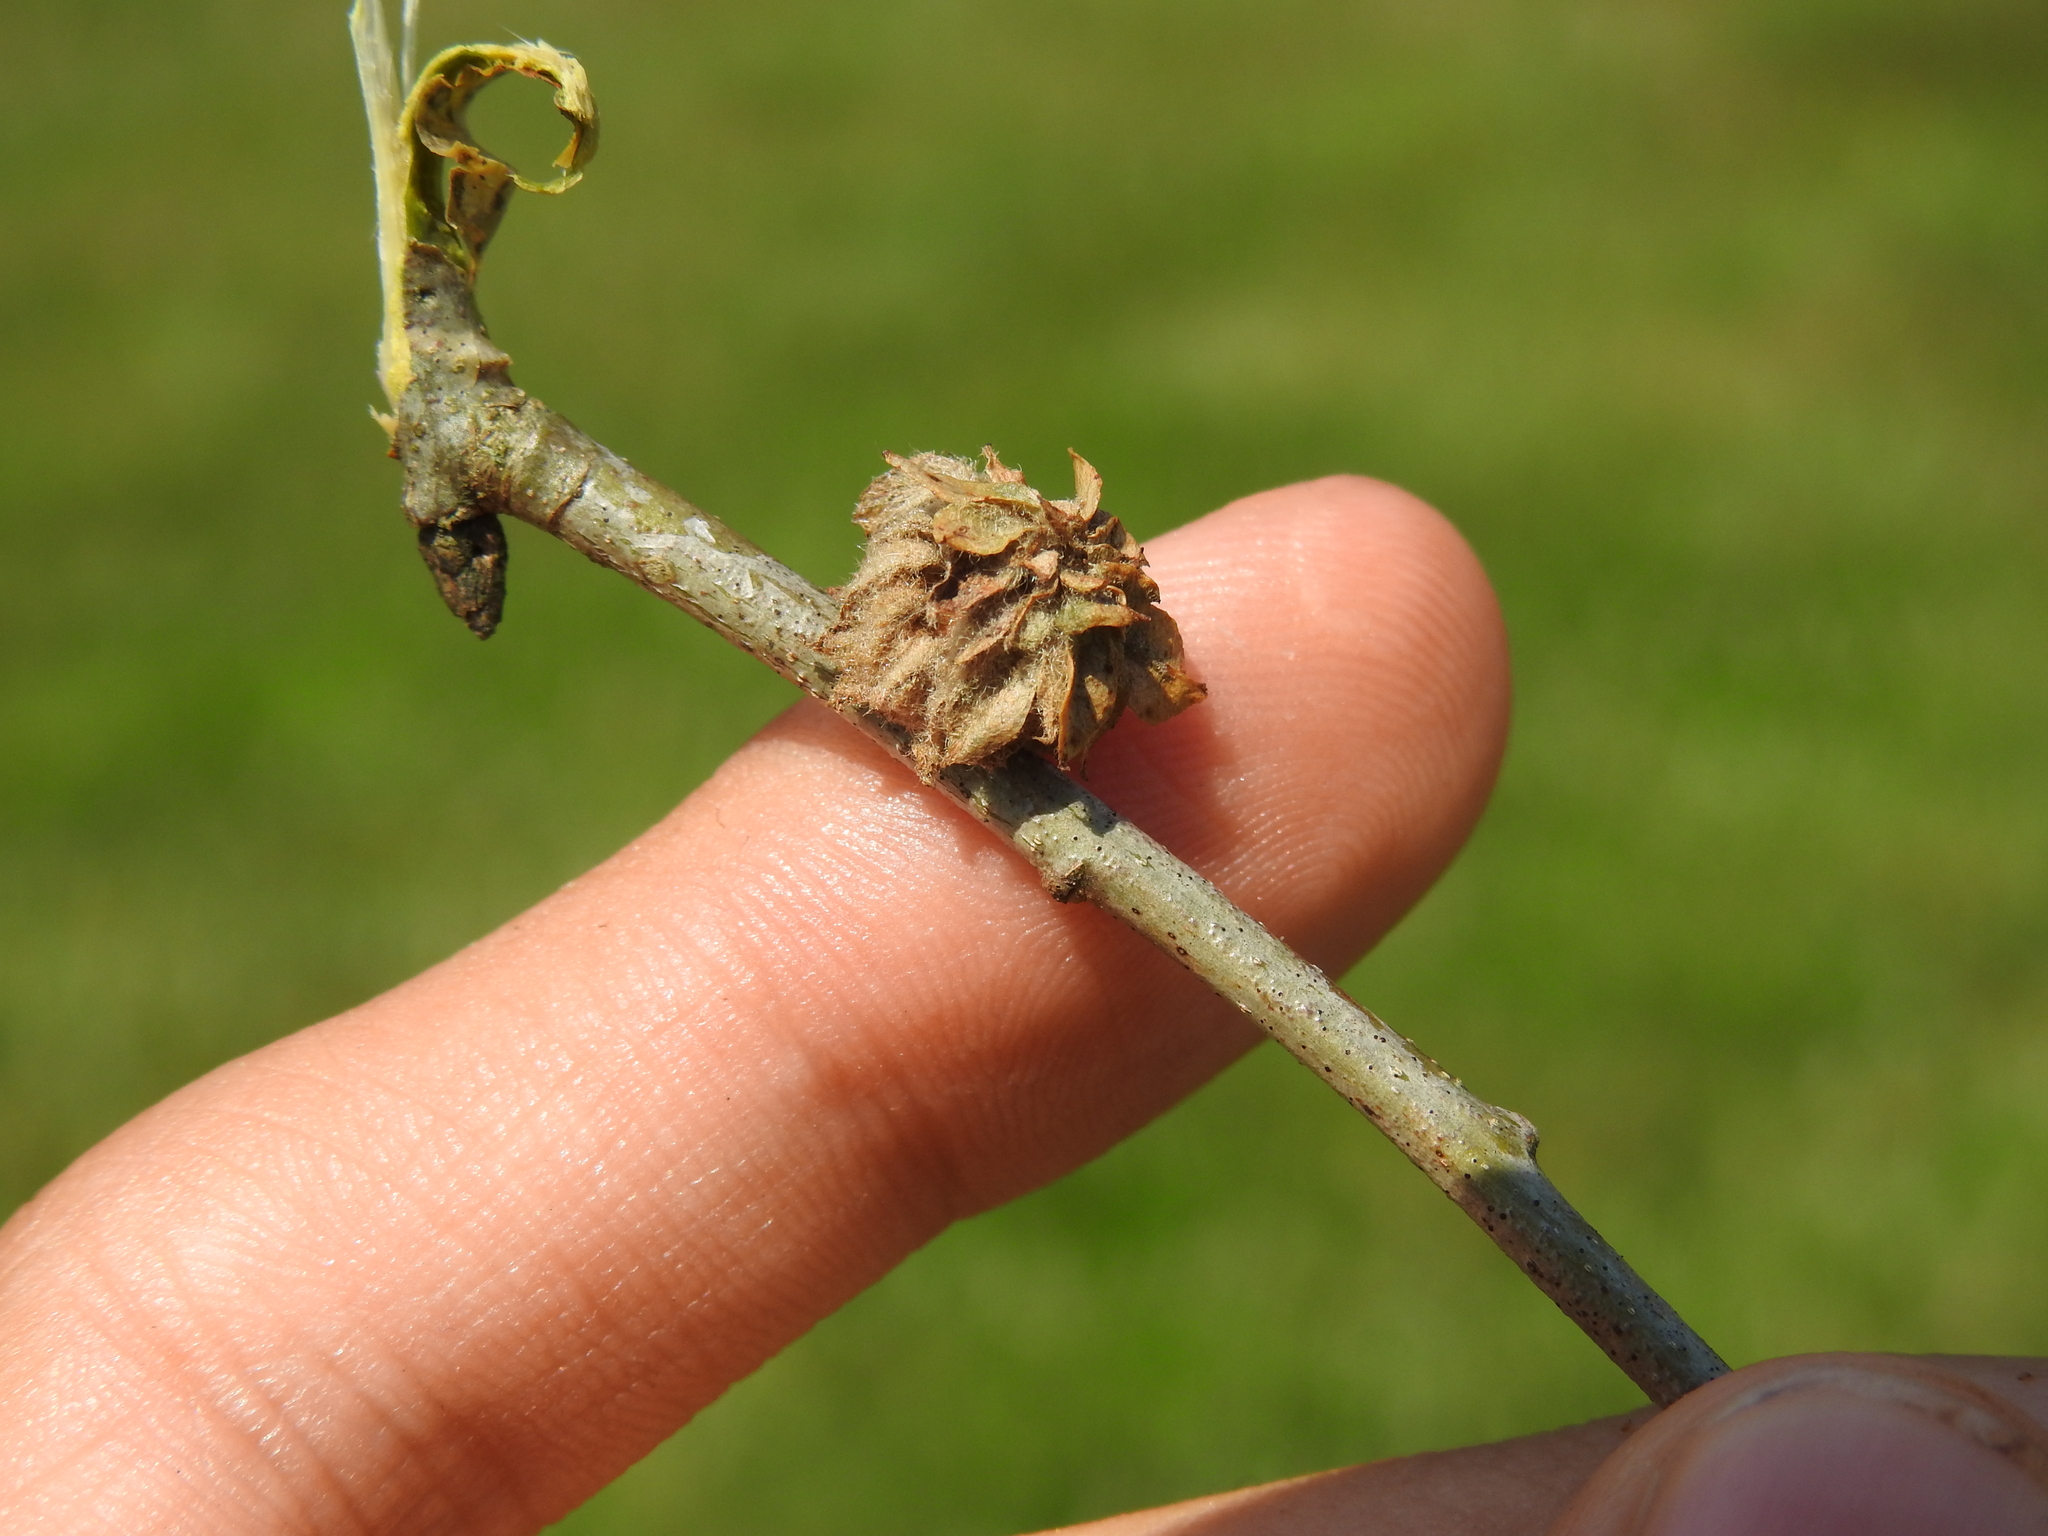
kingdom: Animalia
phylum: Arthropoda
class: Insecta
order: Hymenoptera
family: Cynipidae
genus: Dryocosmus
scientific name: Dryocosmus
